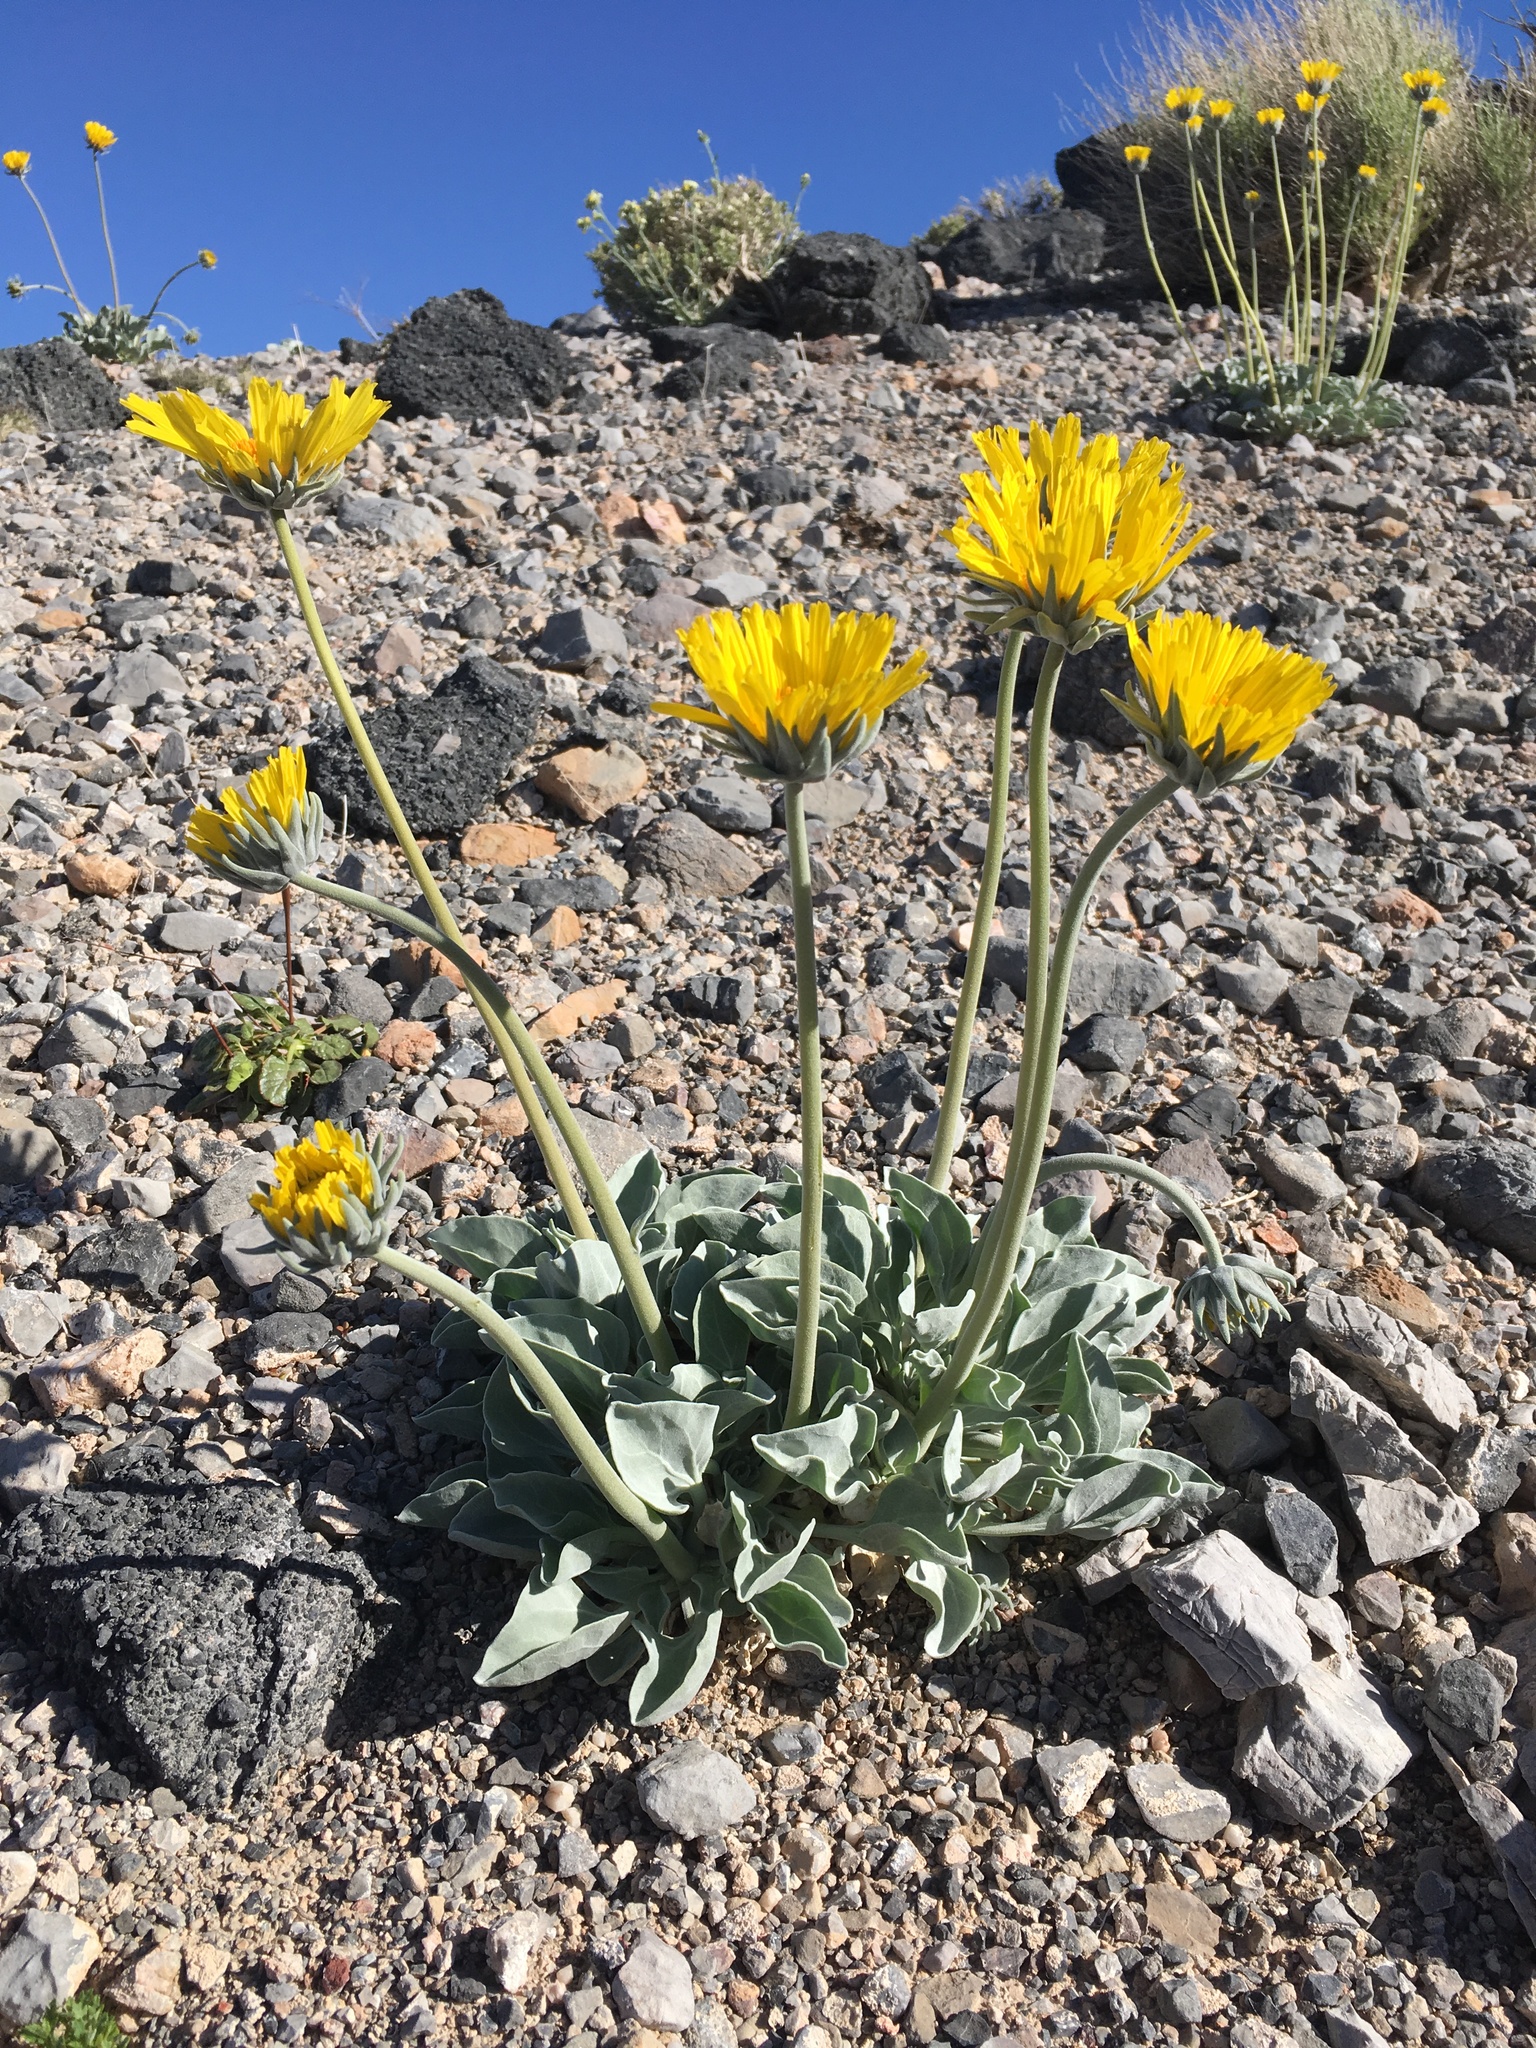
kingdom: Plantae
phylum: Tracheophyta
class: Magnoliopsida
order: Asterales
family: Asteraceae
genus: Enceliopsis
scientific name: Enceliopsis nudicaulis
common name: Naked-stem daisy
